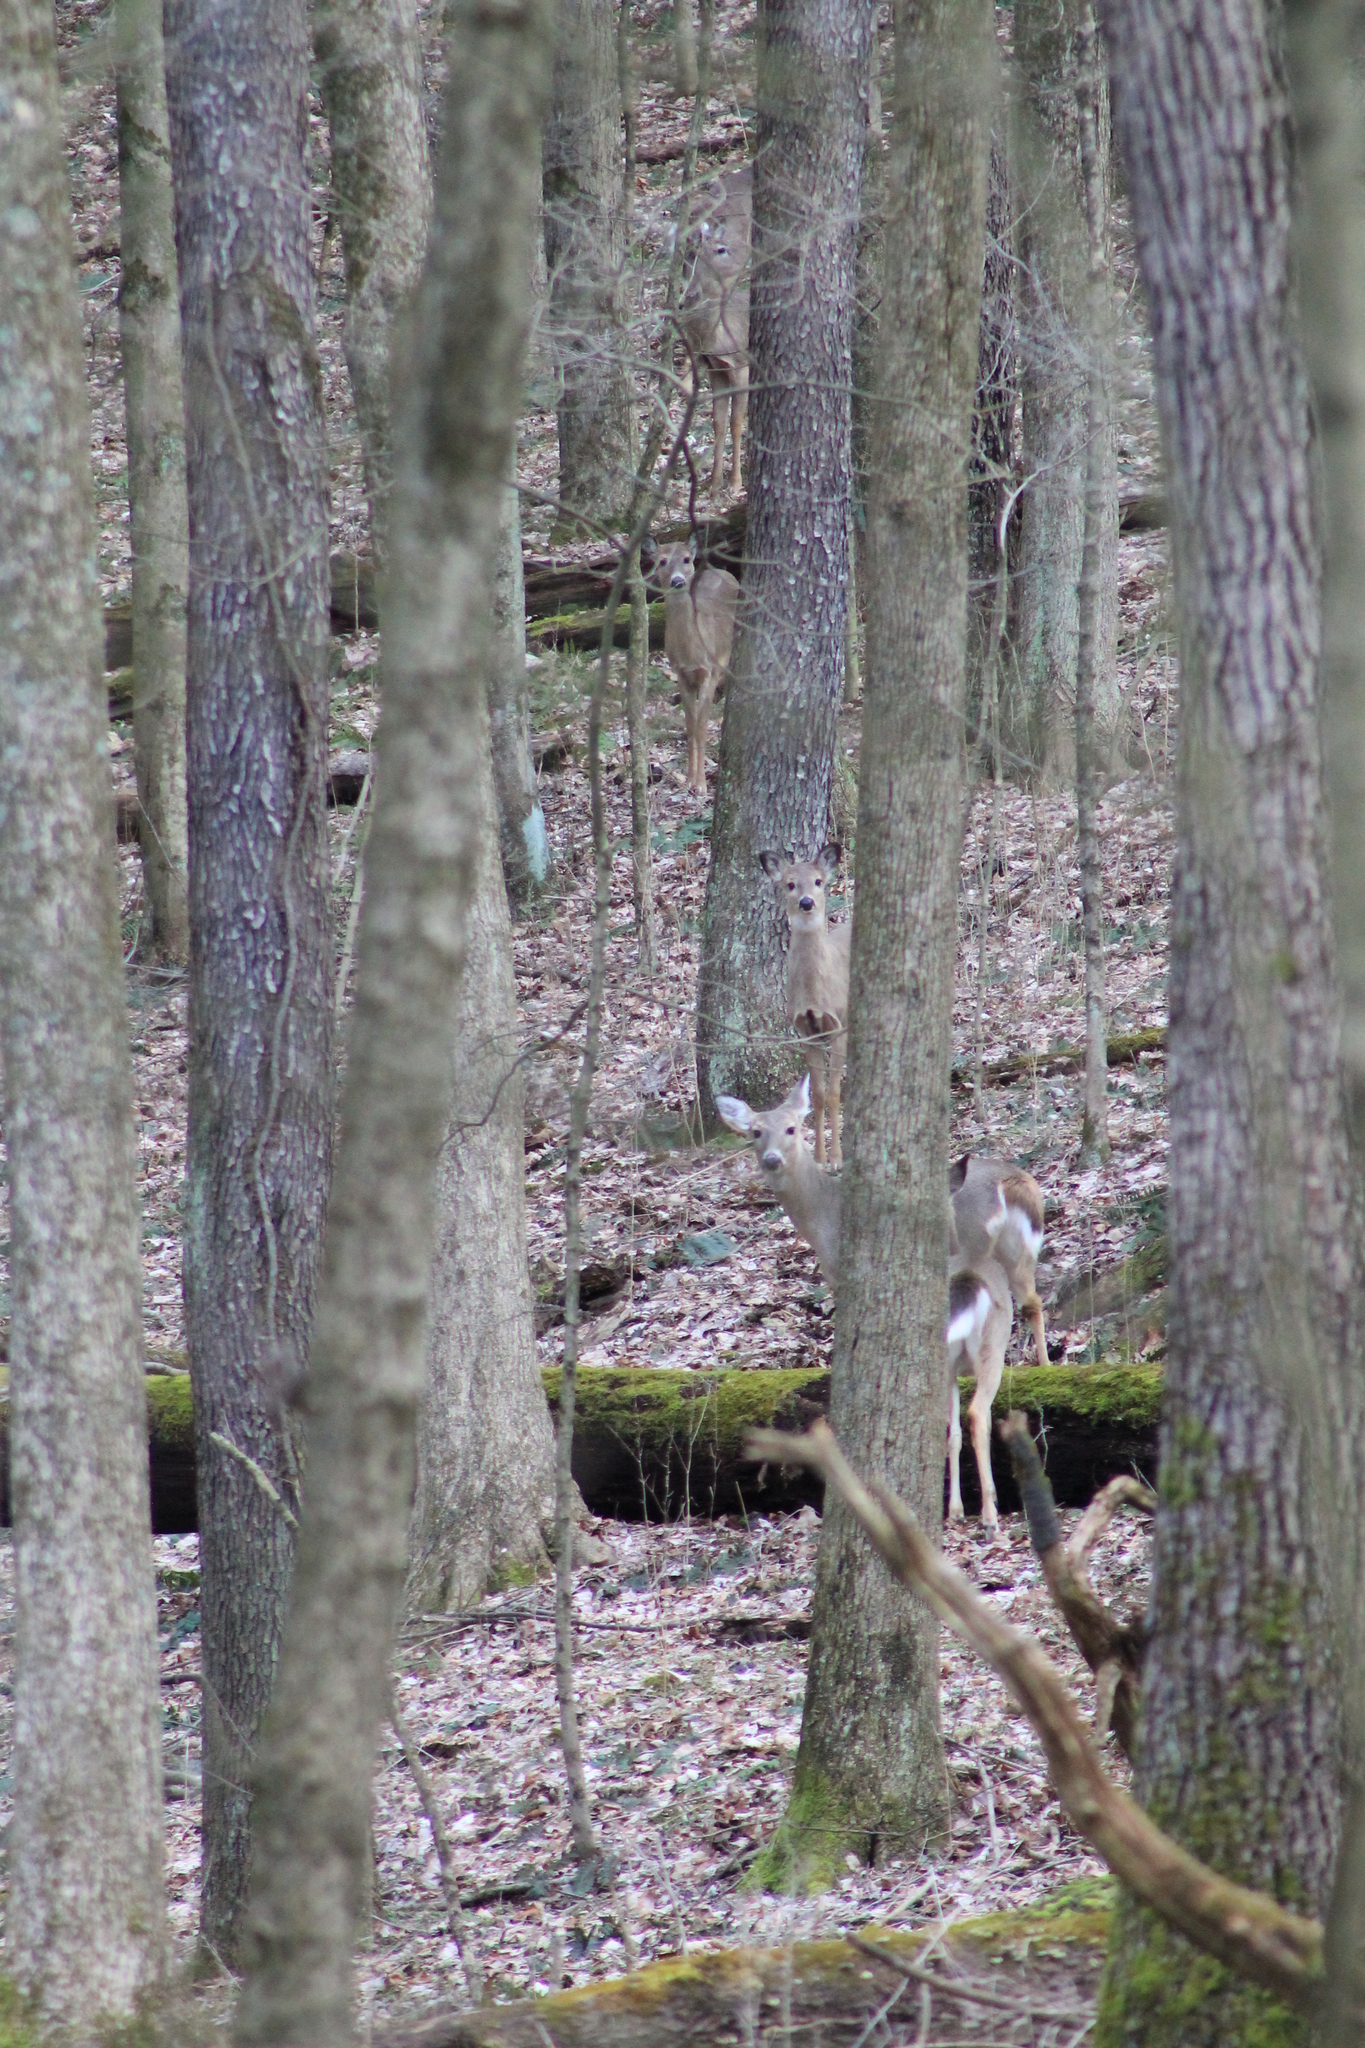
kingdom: Animalia
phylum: Chordata
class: Mammalia
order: Artiodactyla
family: Cervidae
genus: Odocoileus
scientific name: Odocoileus virginianus
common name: White-tailed deer
